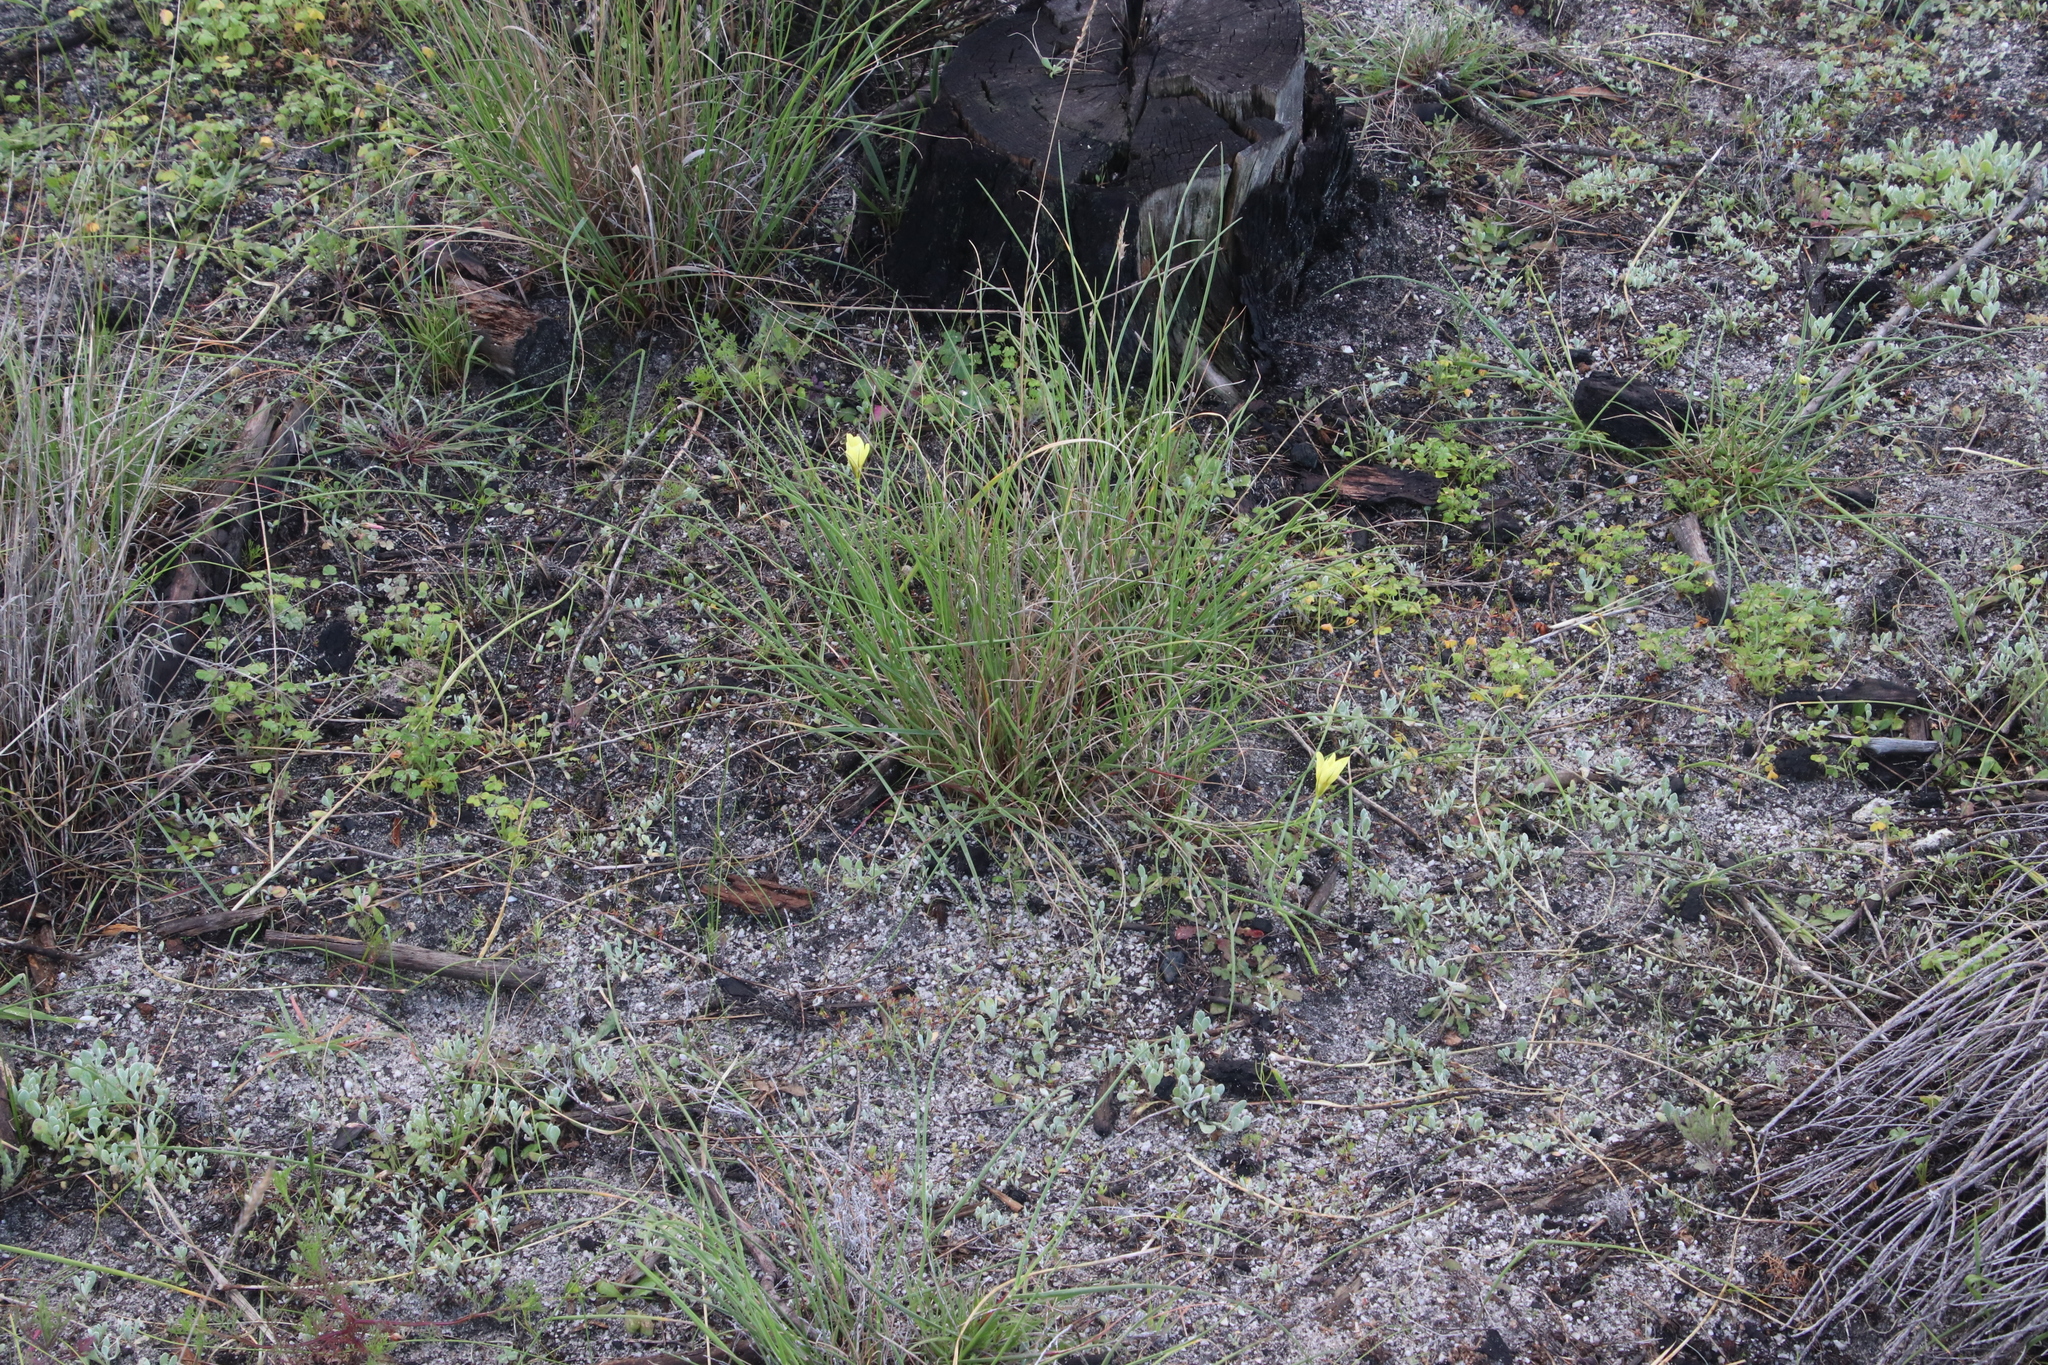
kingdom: Plantae
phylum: Tracheophyta
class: Liliopsida
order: Asparagales
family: Iridaceae
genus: Moraea
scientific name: Moraea collina
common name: Cape-tulip
